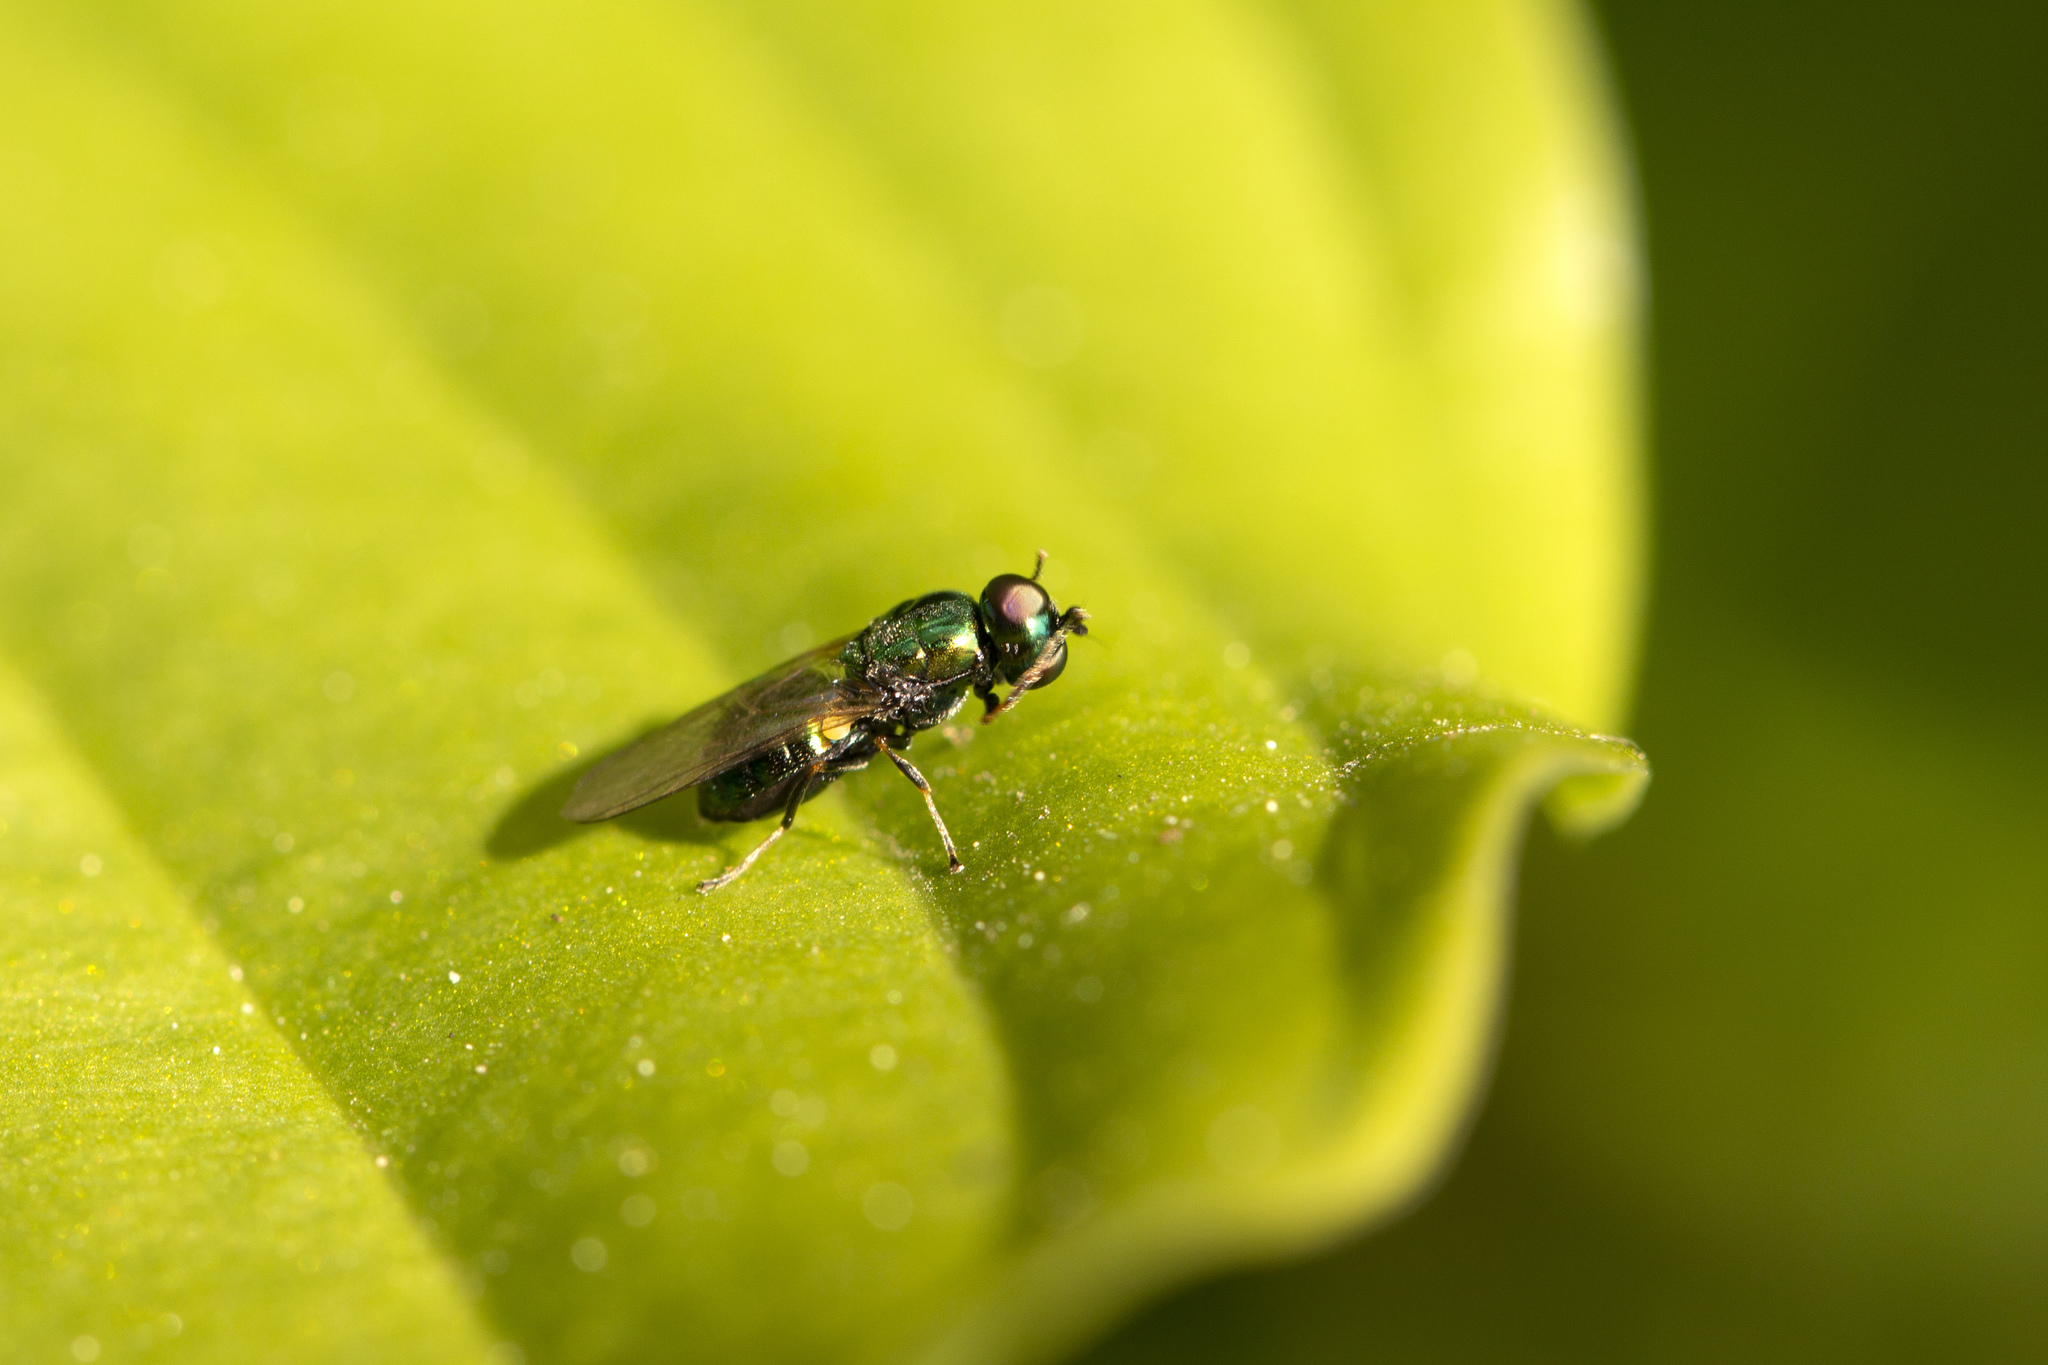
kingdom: Animalia
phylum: Arthropoda
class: Insecta
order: Diptera
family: Stratiomyidae
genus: Microchrysa
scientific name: Microchrysa polita
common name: Black-horned gem
